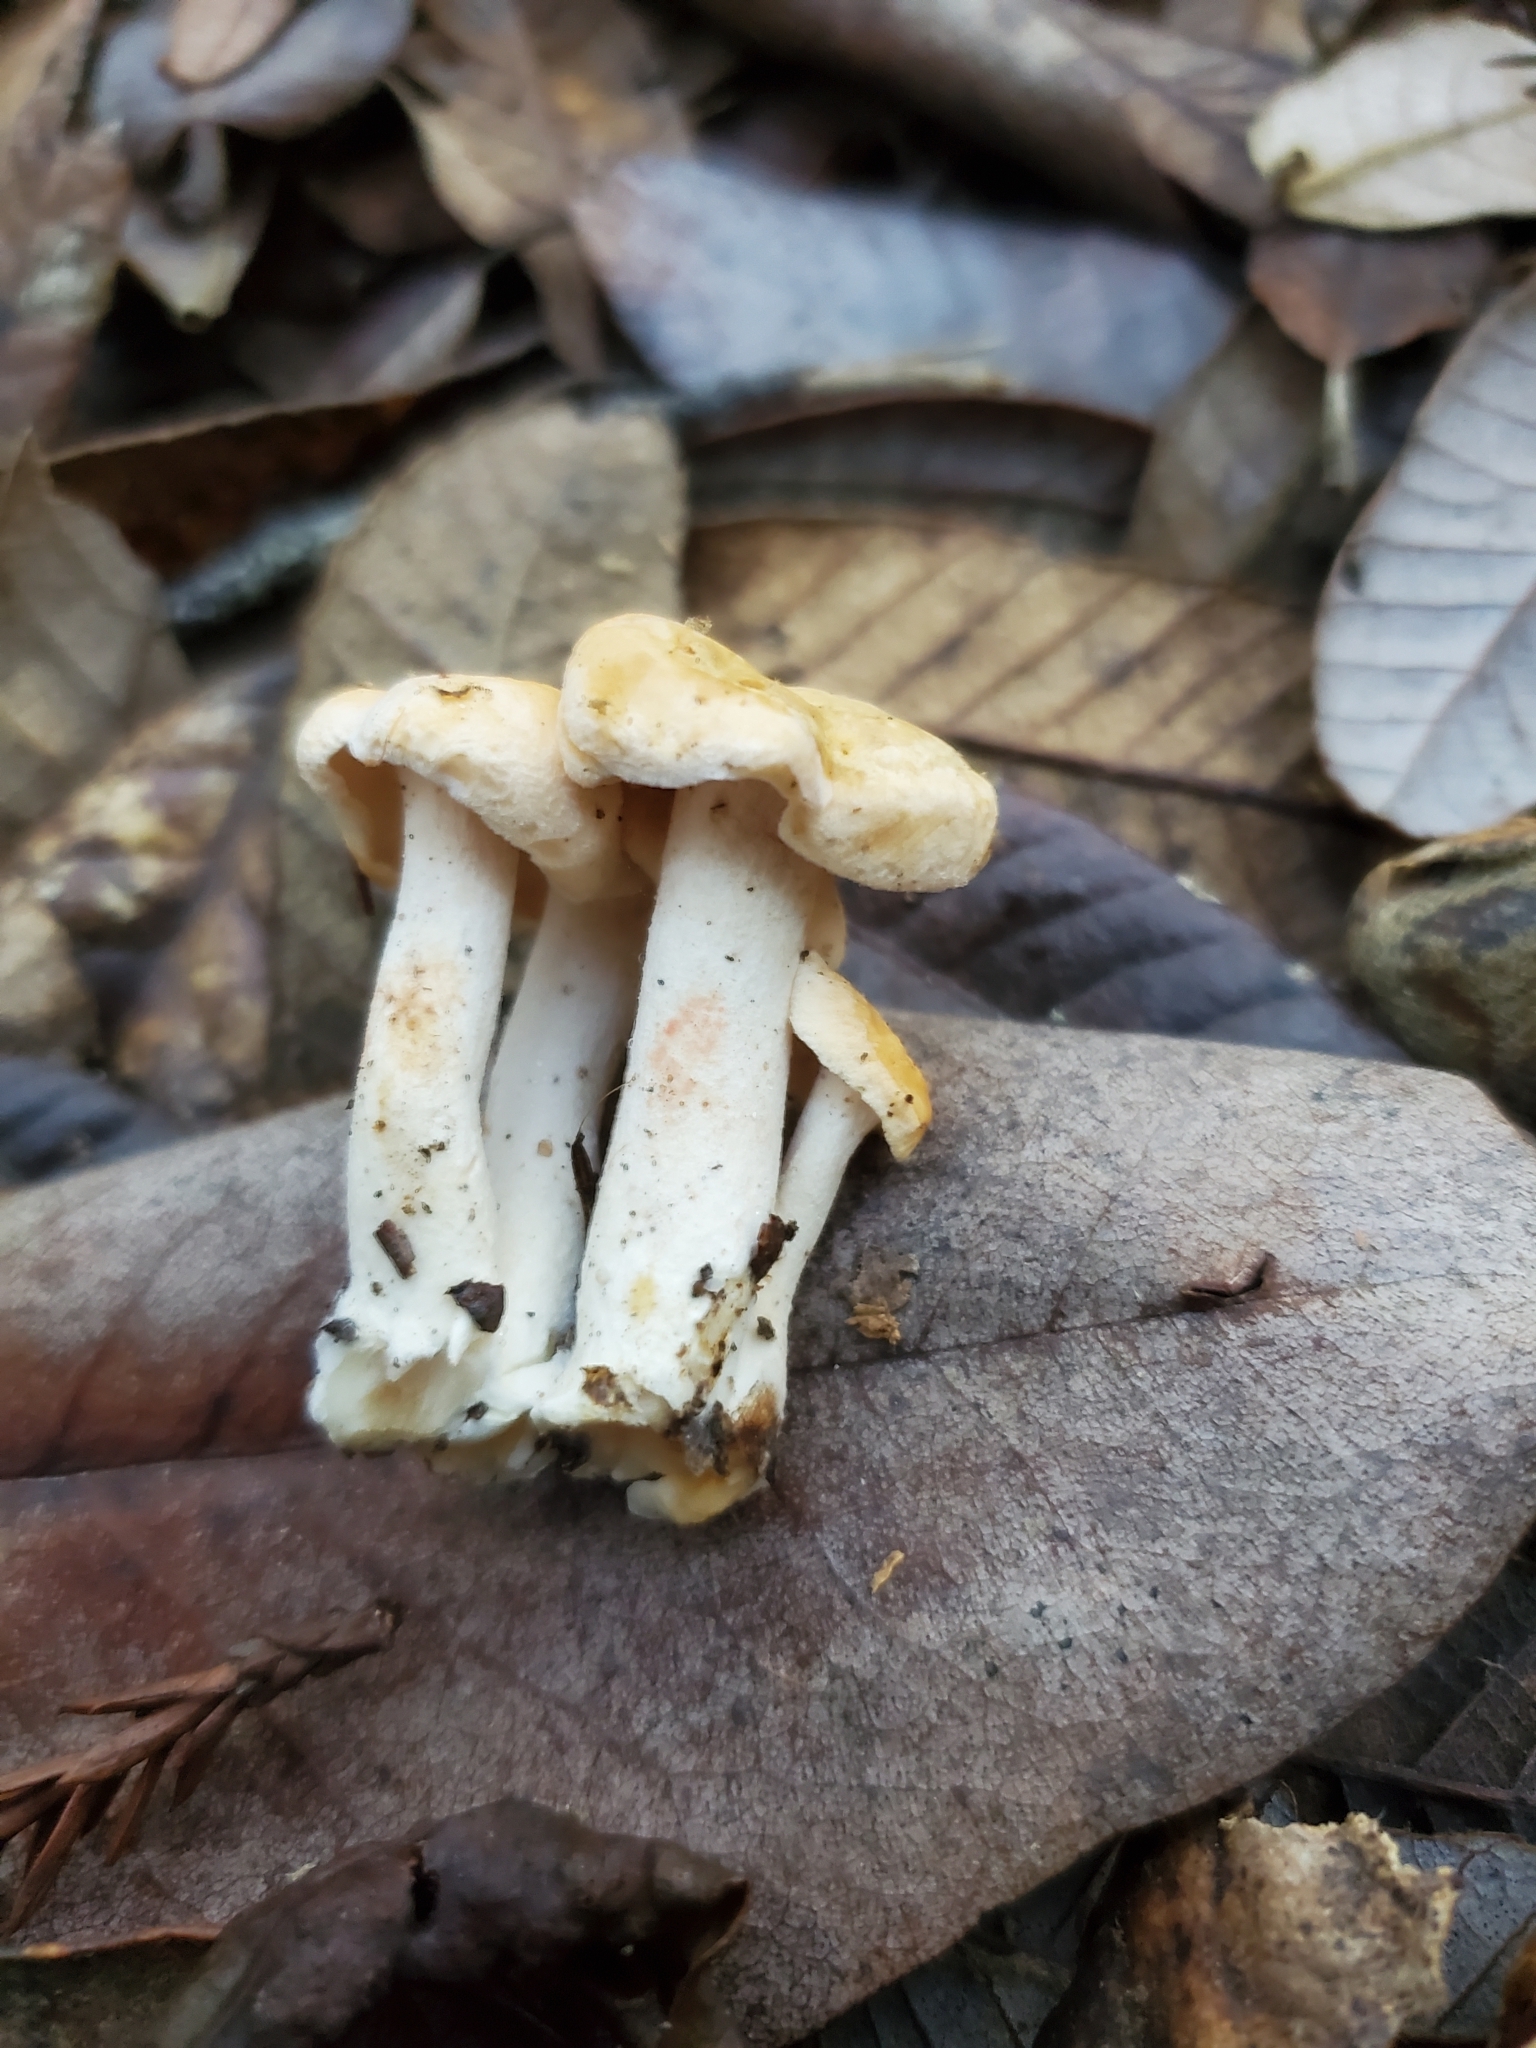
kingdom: Fungi
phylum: Basidiomycota
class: Agaricomycetes
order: Cantharellales
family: Hydnaceae
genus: Hydnum
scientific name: Hydnum oregonense
